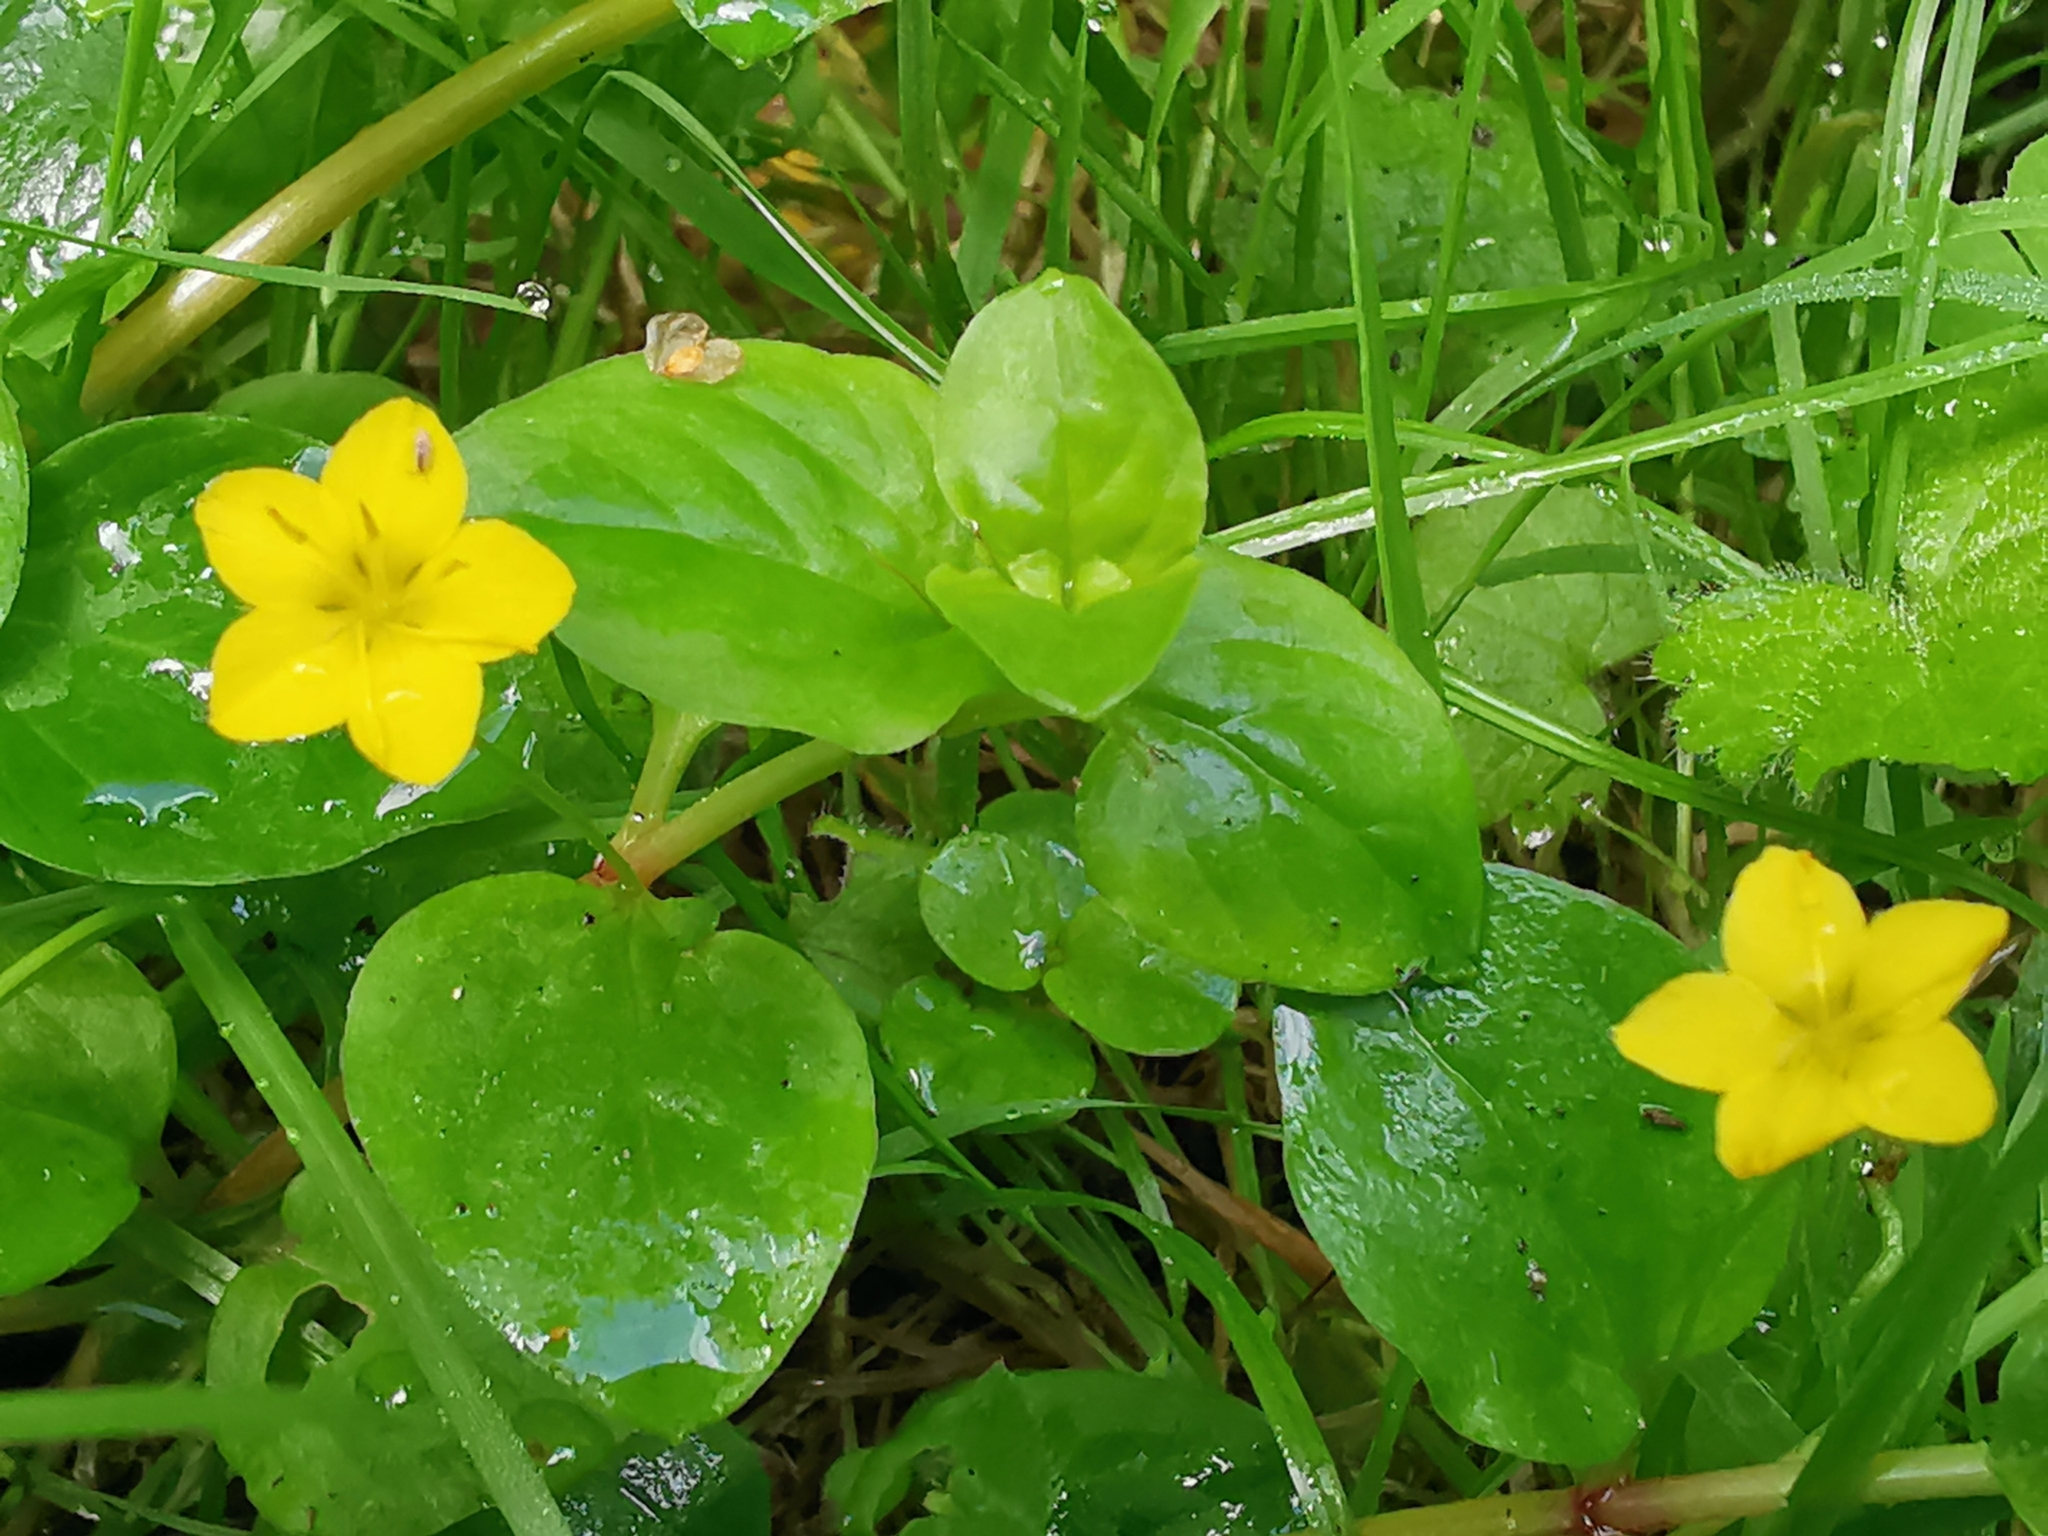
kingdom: Plantae
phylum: Tracheophyta
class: Magnoliopsida
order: Ericales
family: Primulaceae
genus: Lysimachia
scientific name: Lysimachia nemorum
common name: Yellow pimpernel
